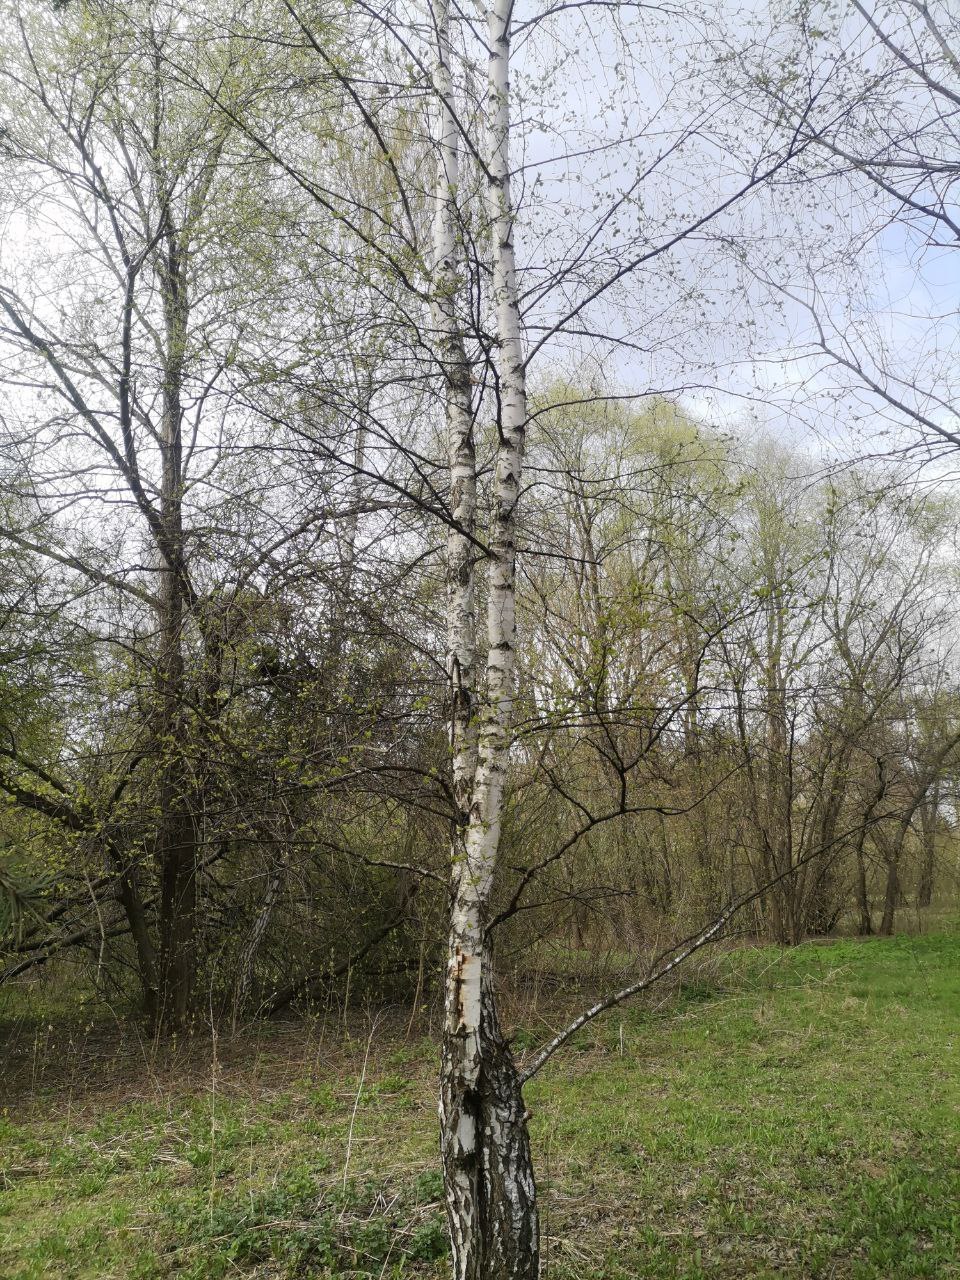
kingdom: Plantae
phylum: Tracheophyta
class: Magnoliopsida
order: Fagales
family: Betulaceae
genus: Betula
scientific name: Betula pendula
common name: Silver birch
